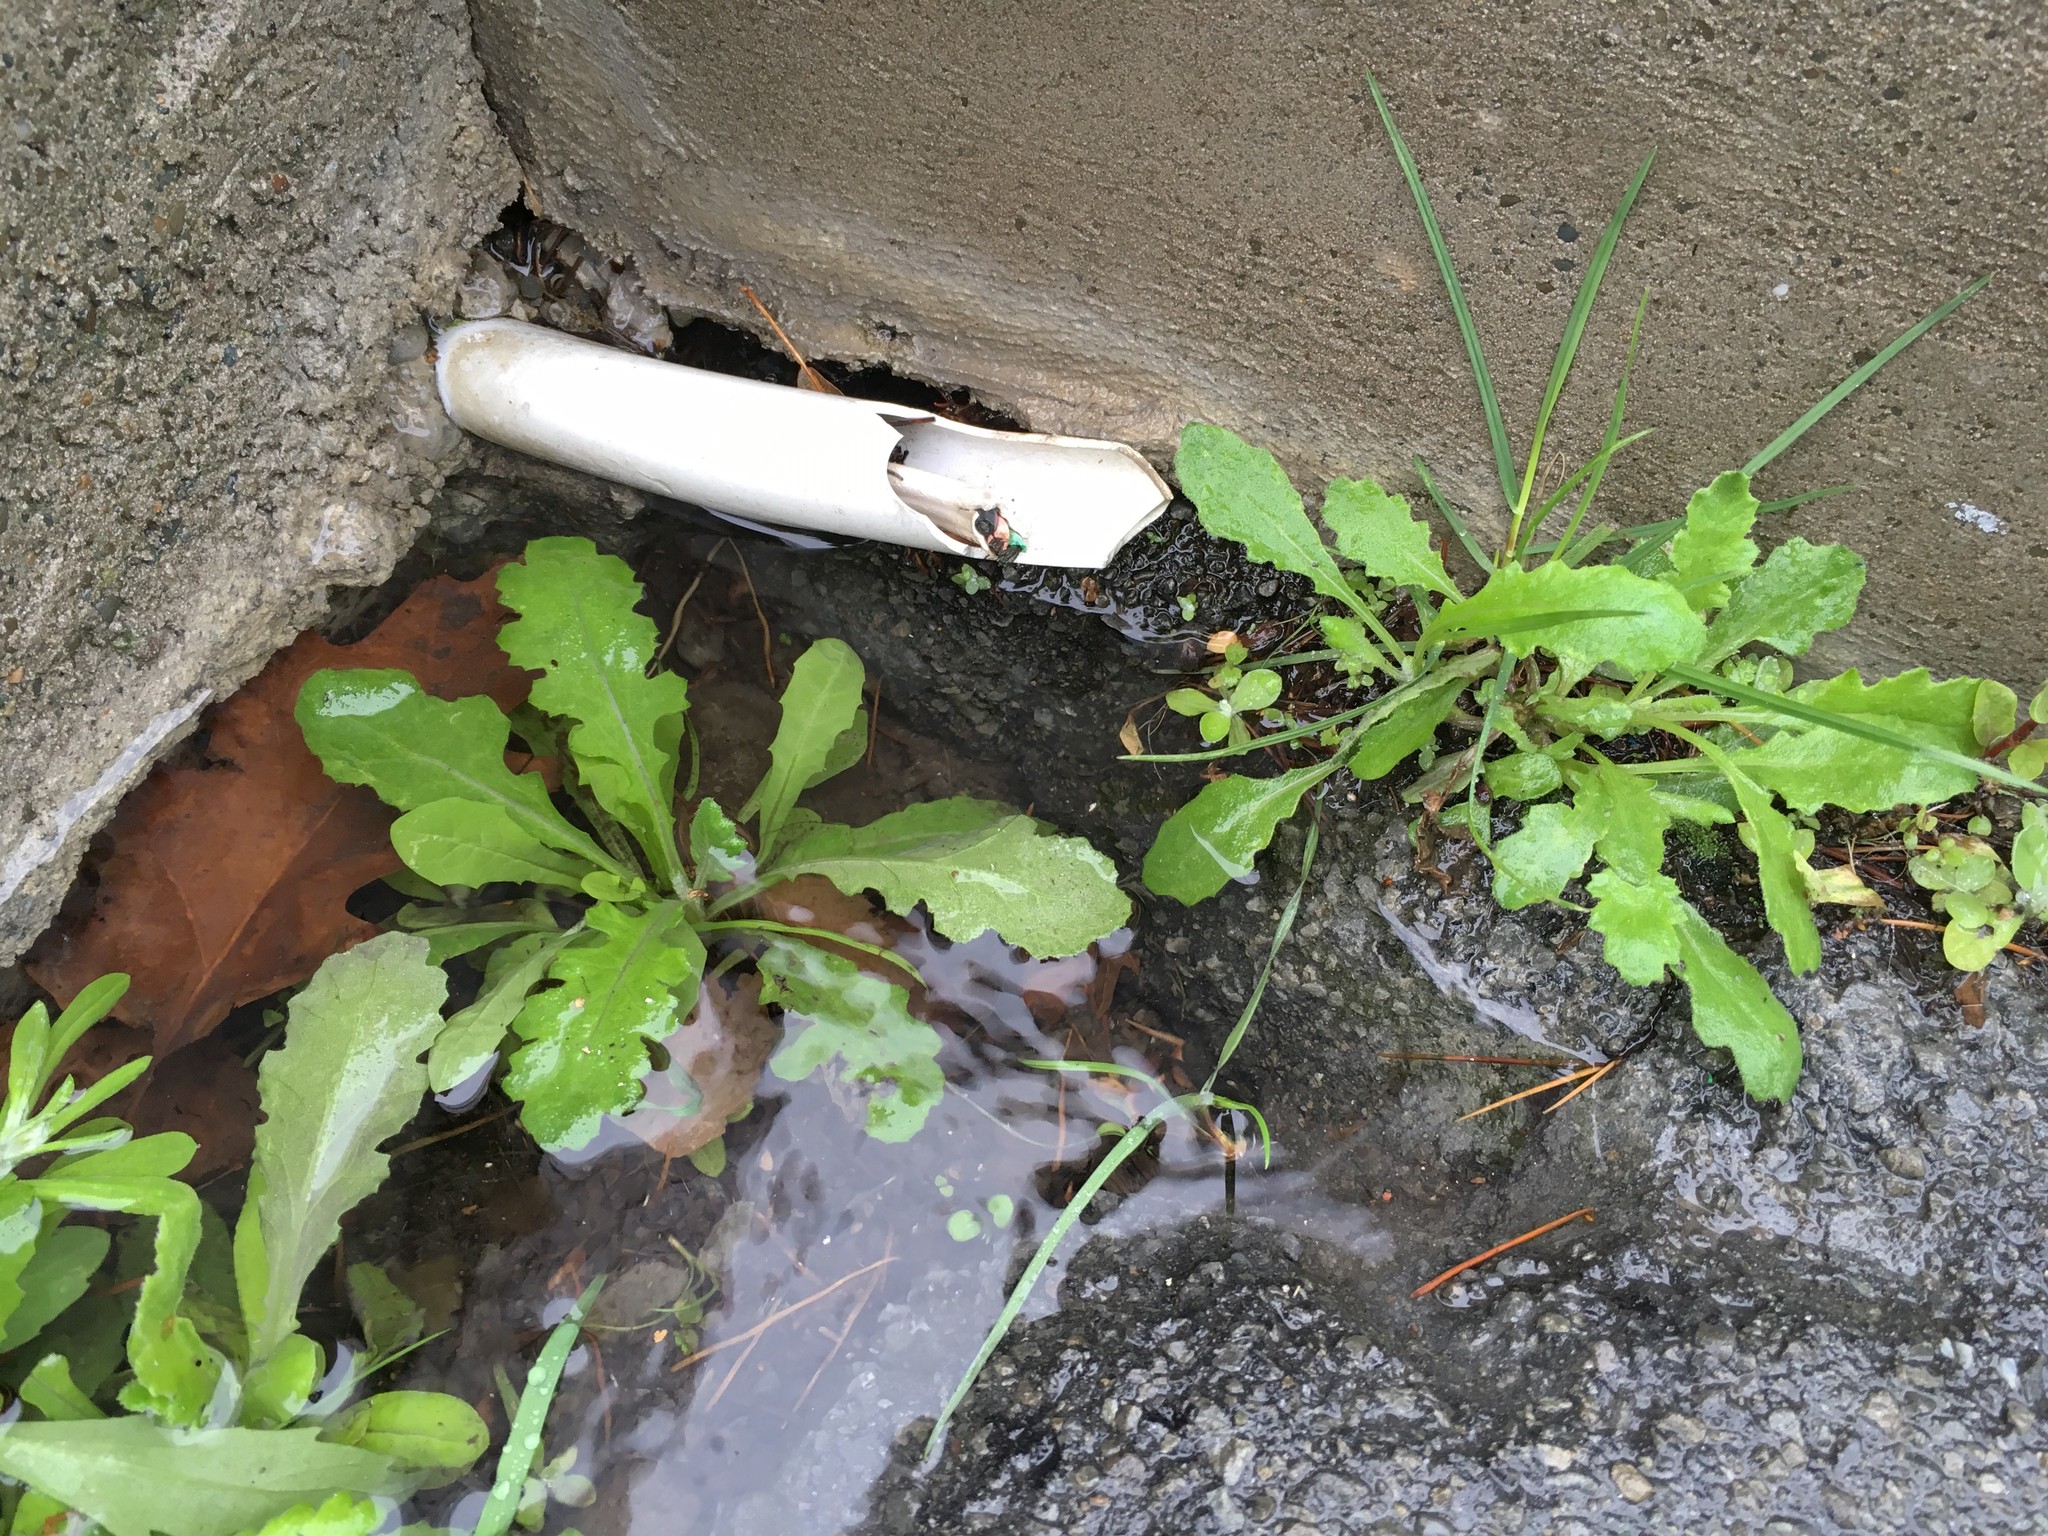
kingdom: Plantae
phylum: Tracheophyta
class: Magnoliopsida
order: Asterales
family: Asteraceae
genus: Senecio
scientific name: Senecio glomeratus
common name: Cutleaf burnweed
